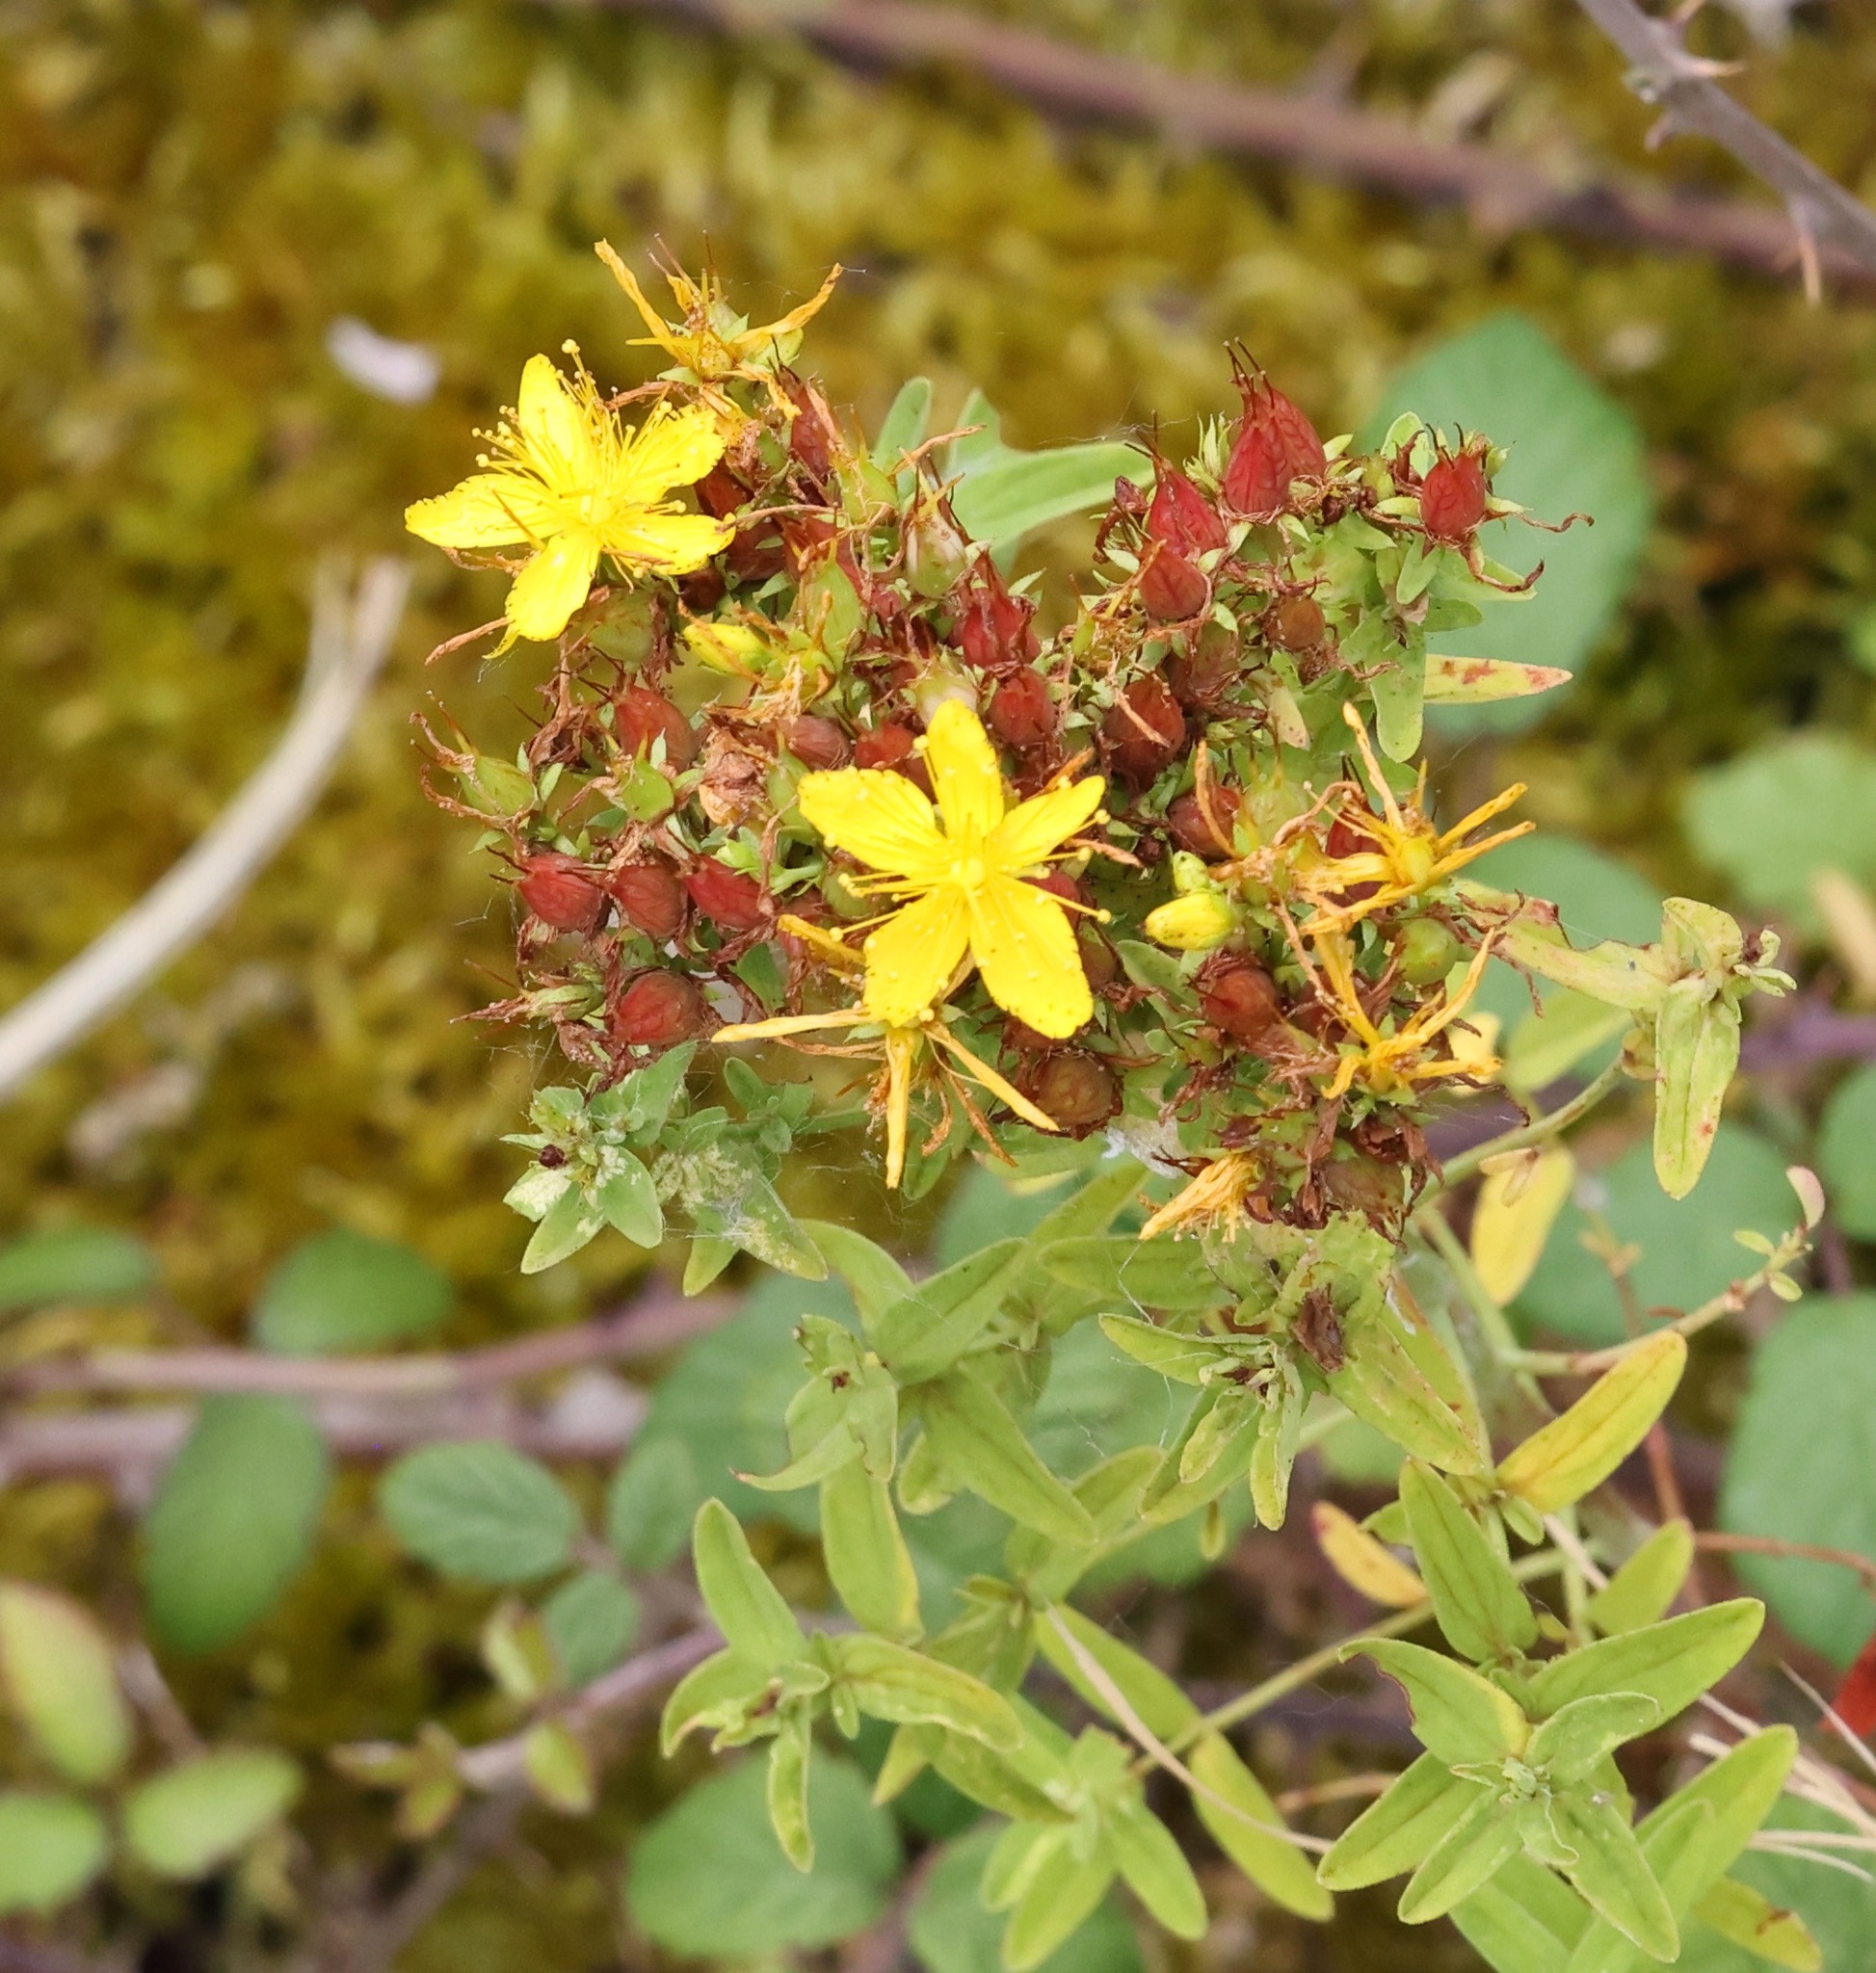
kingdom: Plantae
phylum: Tracheophyta
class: Magnoliopsida
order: Malpighiales
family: Hypericaceae
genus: Hypericum
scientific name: Hypericum perforatum
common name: Common st. johnswort
